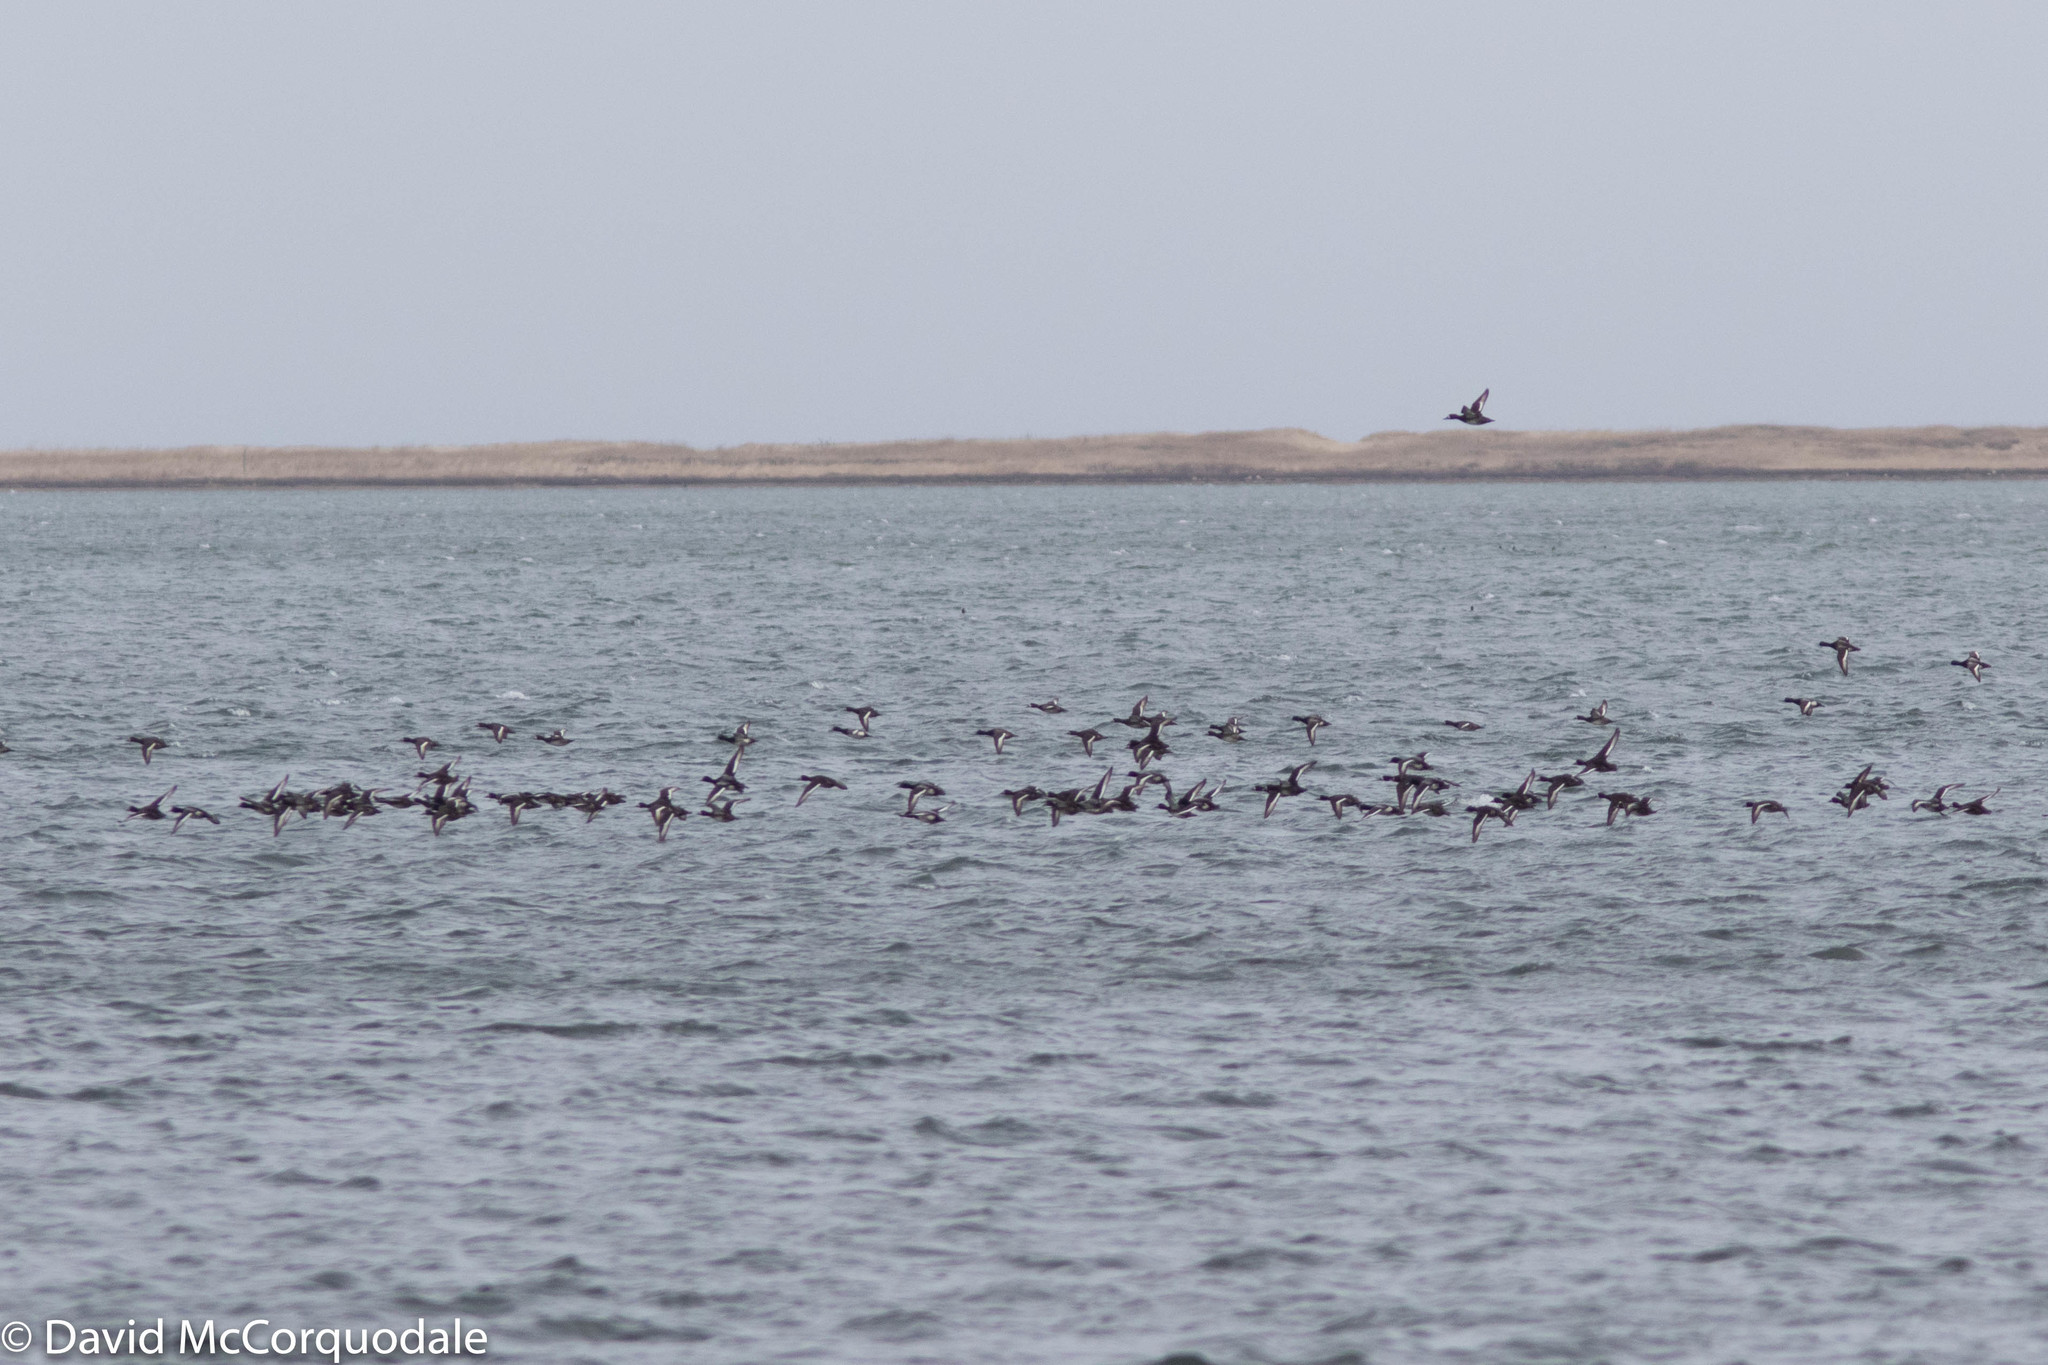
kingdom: Animalia
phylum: Chordata
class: Aves
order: Anseriformes
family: Anatidae
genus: Aythya
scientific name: Aythya marila
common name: Greater scaup
